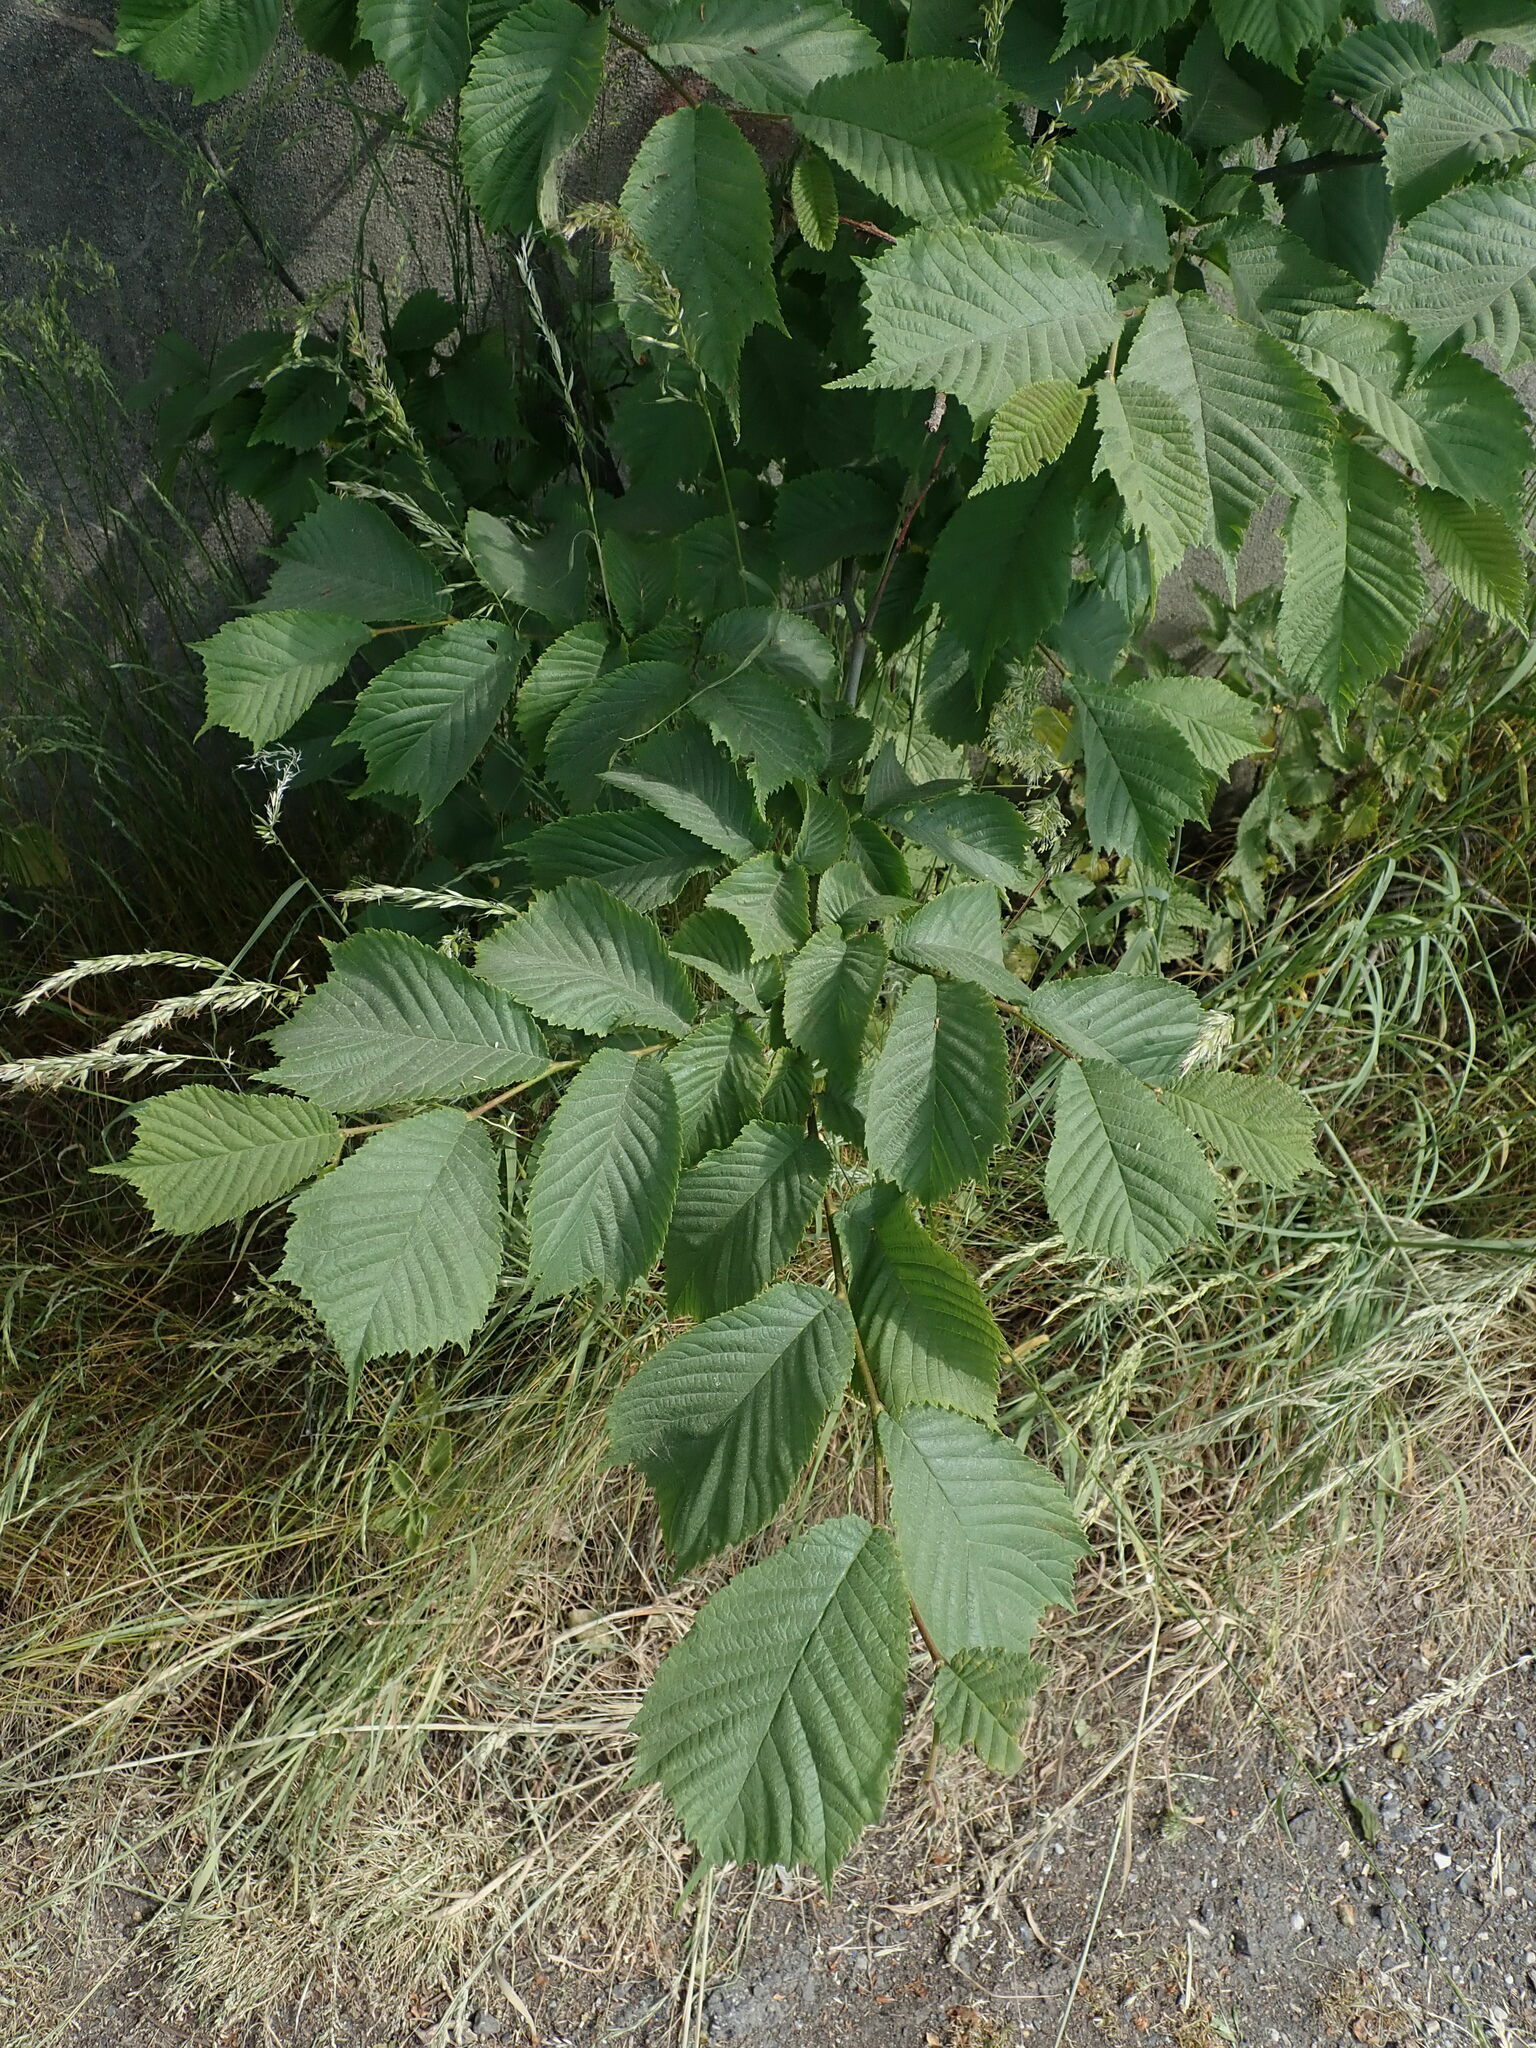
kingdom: Plantae
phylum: Tracheophyta
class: Magnoliopsida
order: Rosales
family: Ulmaceae
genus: Ulmus
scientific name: Ulmus glabra
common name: Wych elm
